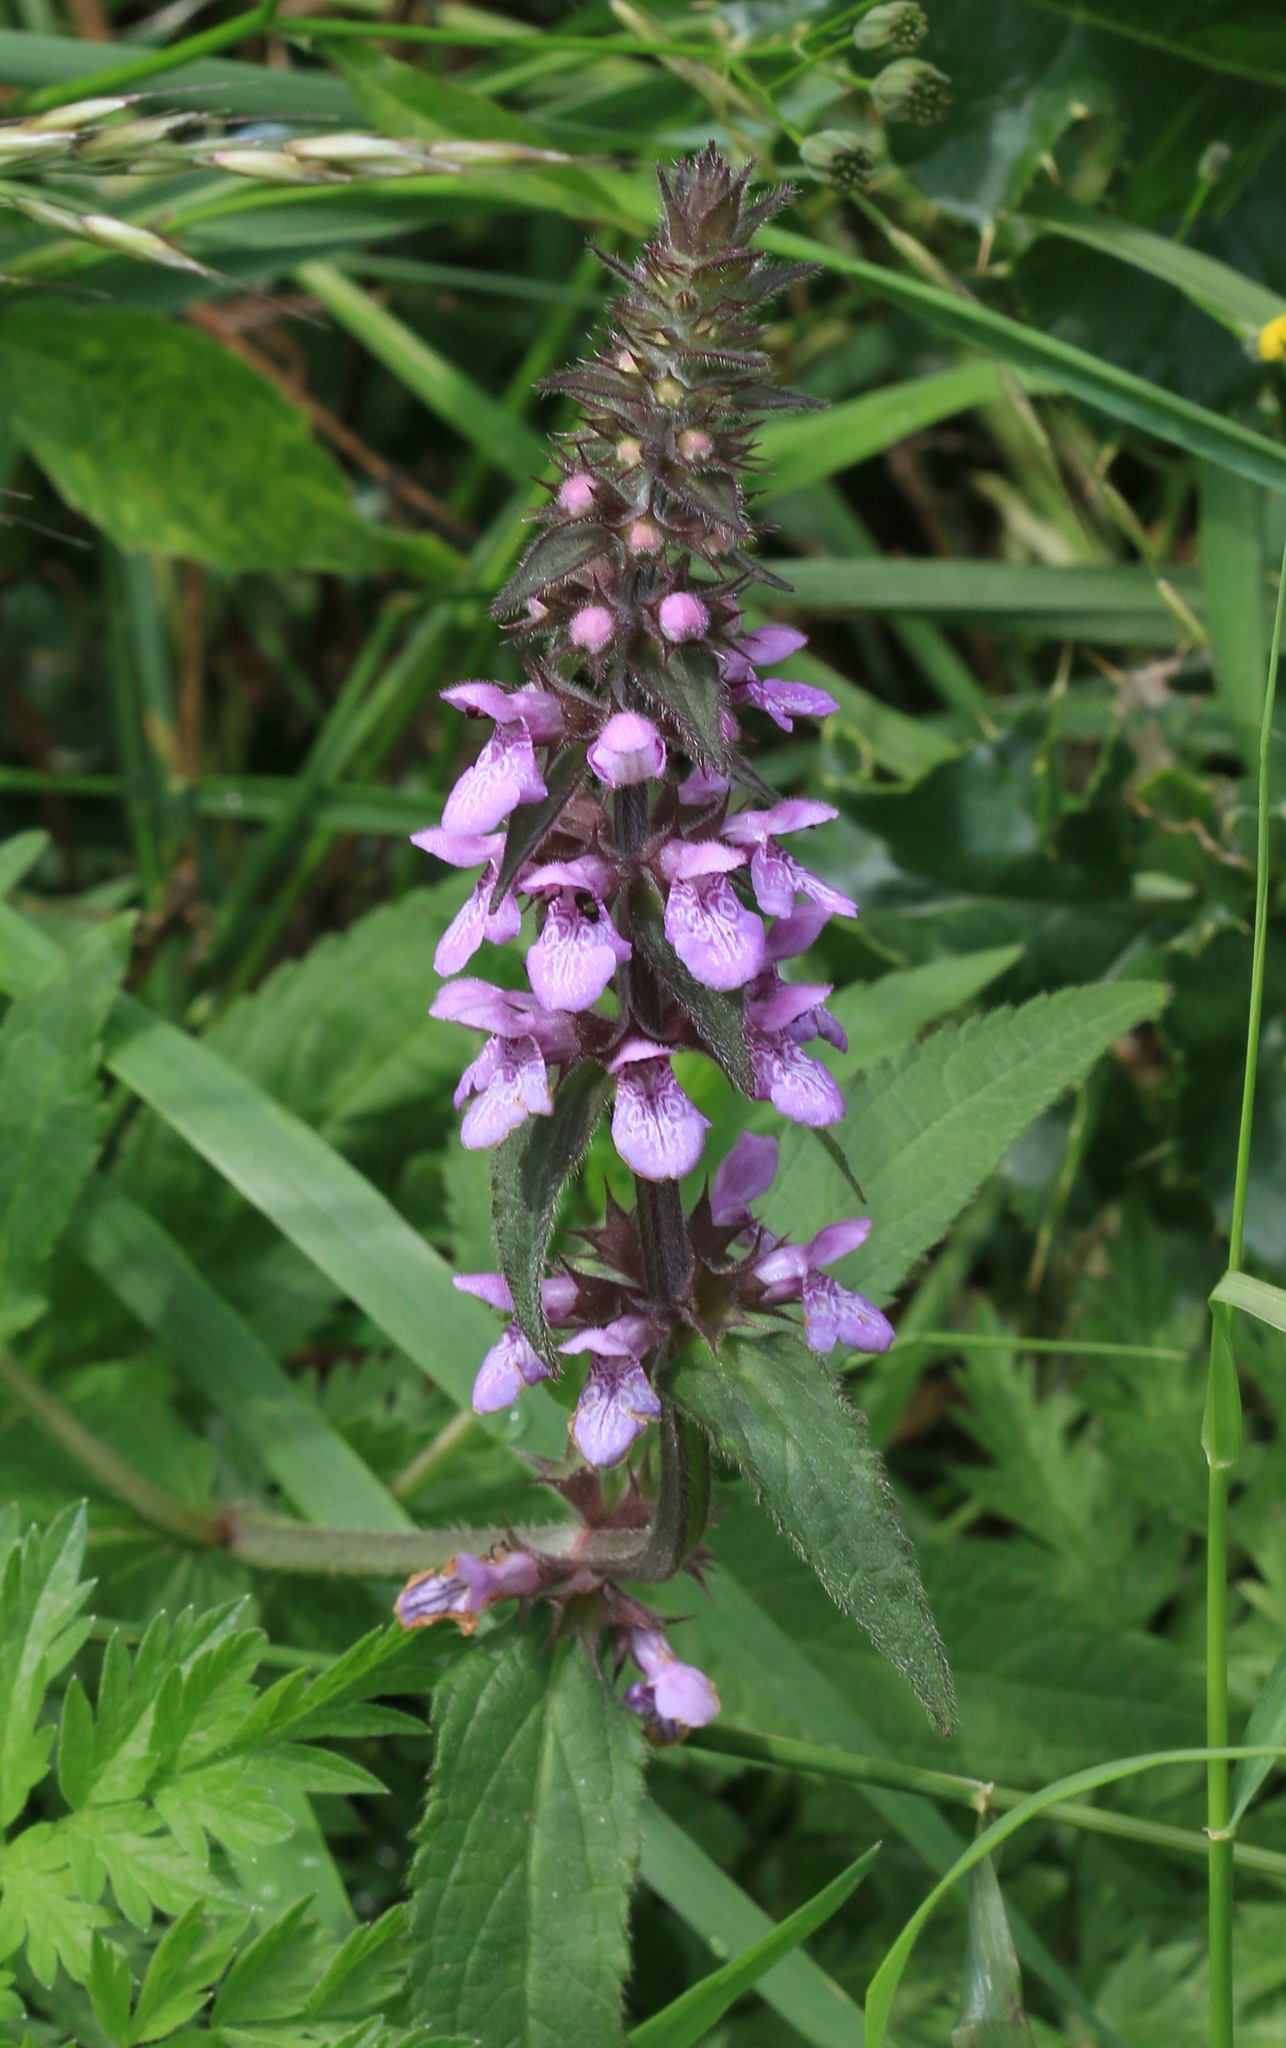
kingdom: Plantae
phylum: Tracheophyta
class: Magnoliopsida
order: Lamiales
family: Lamiaceae
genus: Stachys
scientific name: Stachys palustris
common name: Marsh woundwort
